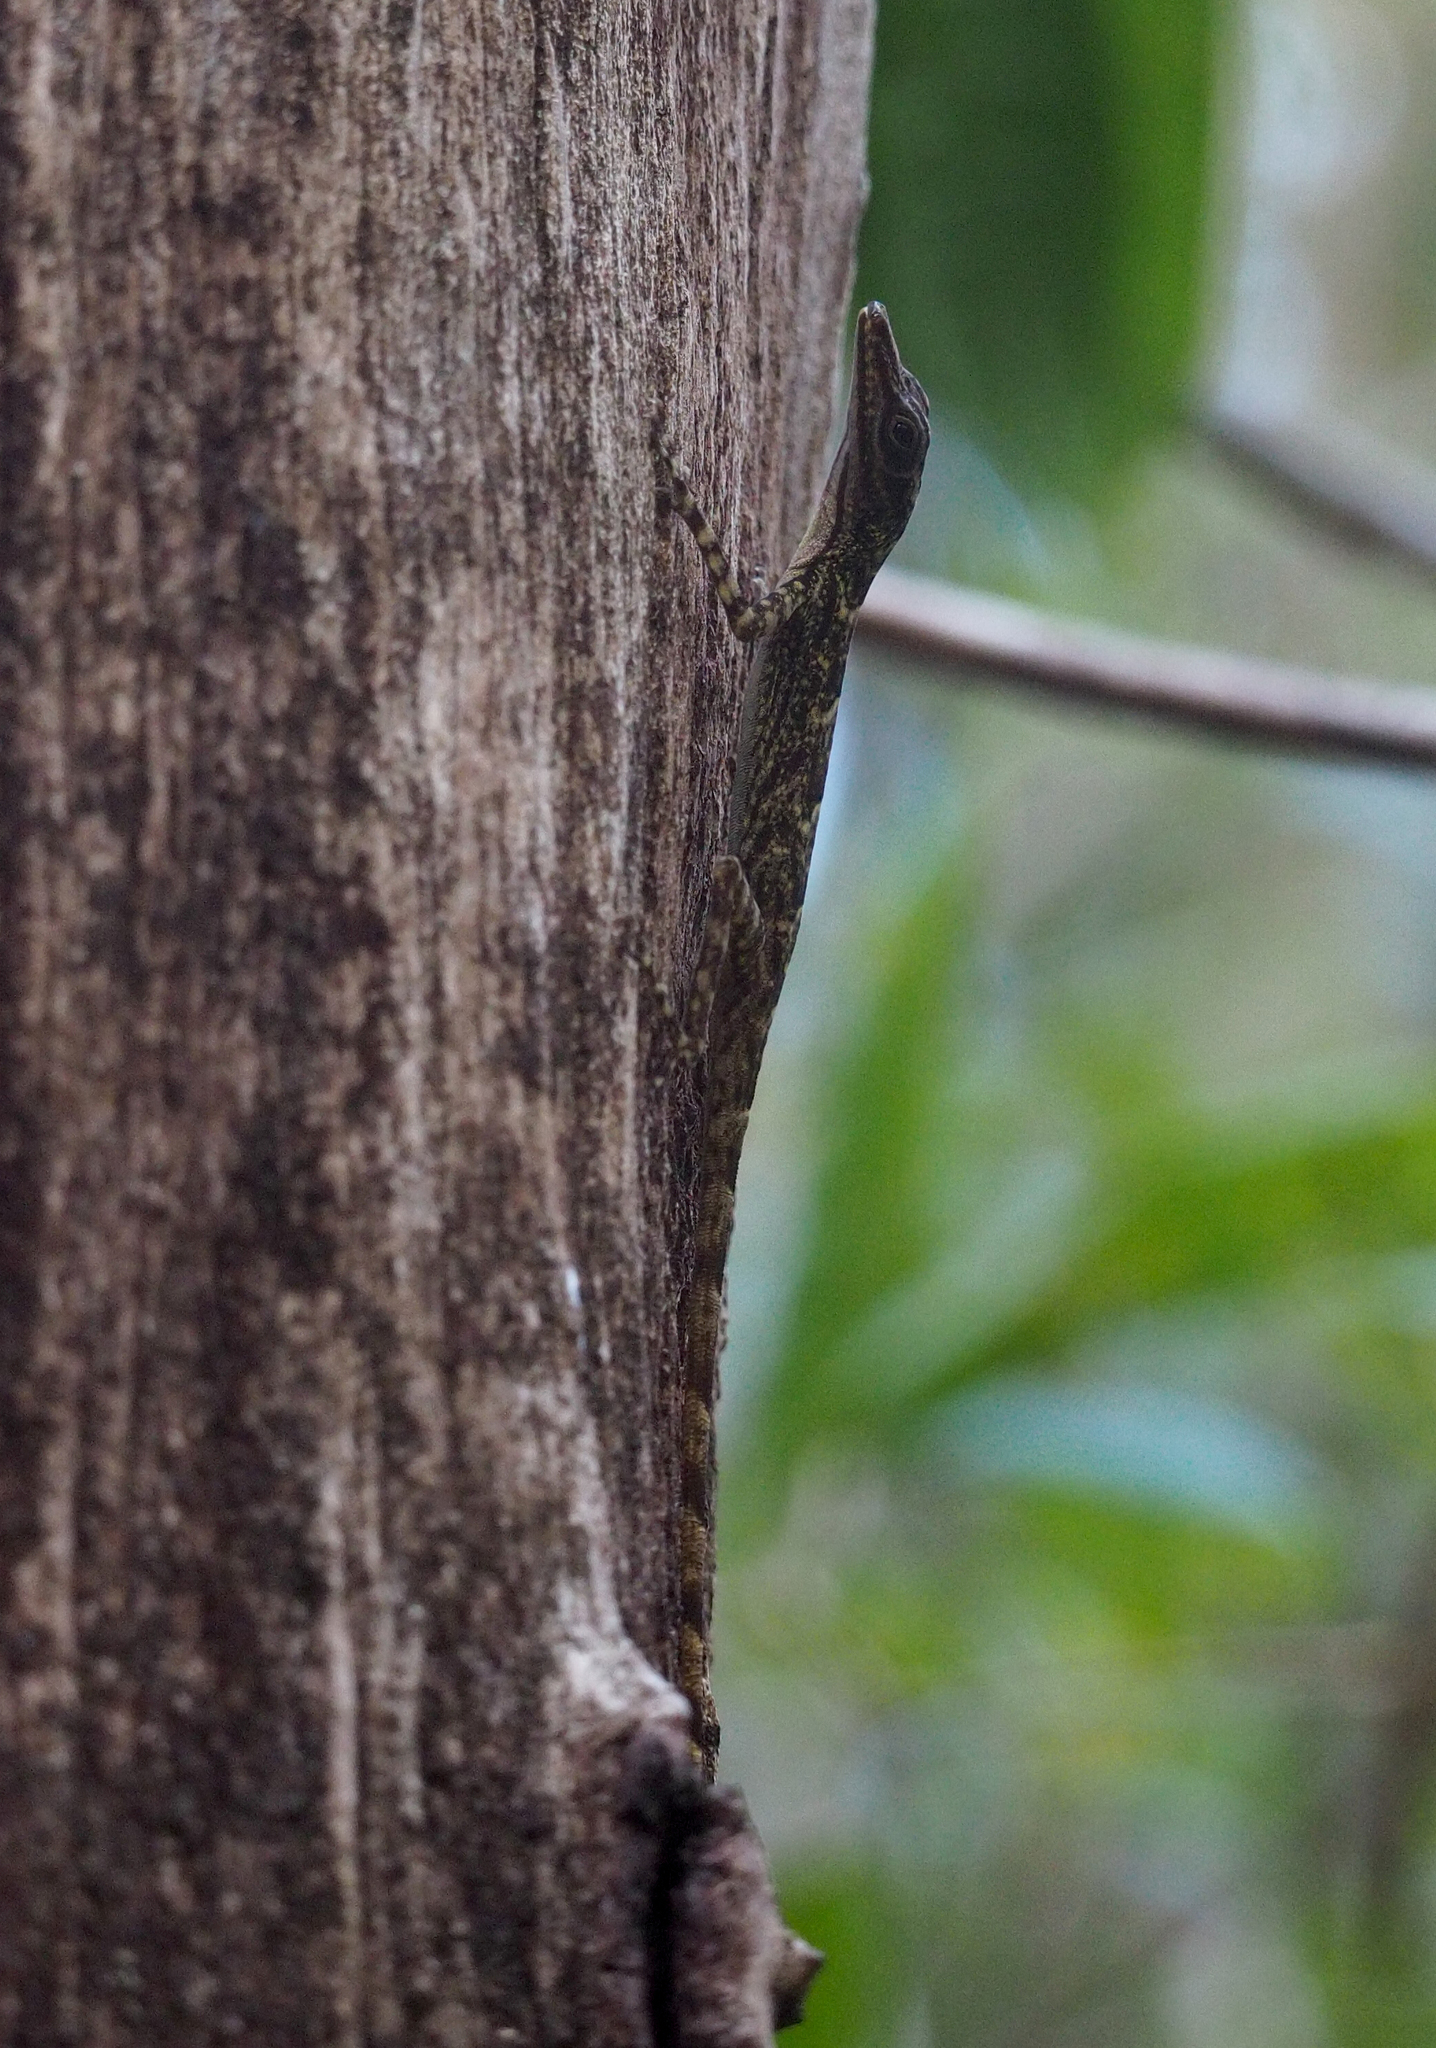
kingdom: Animalia
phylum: Chordata
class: Squamata
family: Dactyloidae
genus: Anolis
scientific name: Anolis argenteolus
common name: Guantanamo anole
